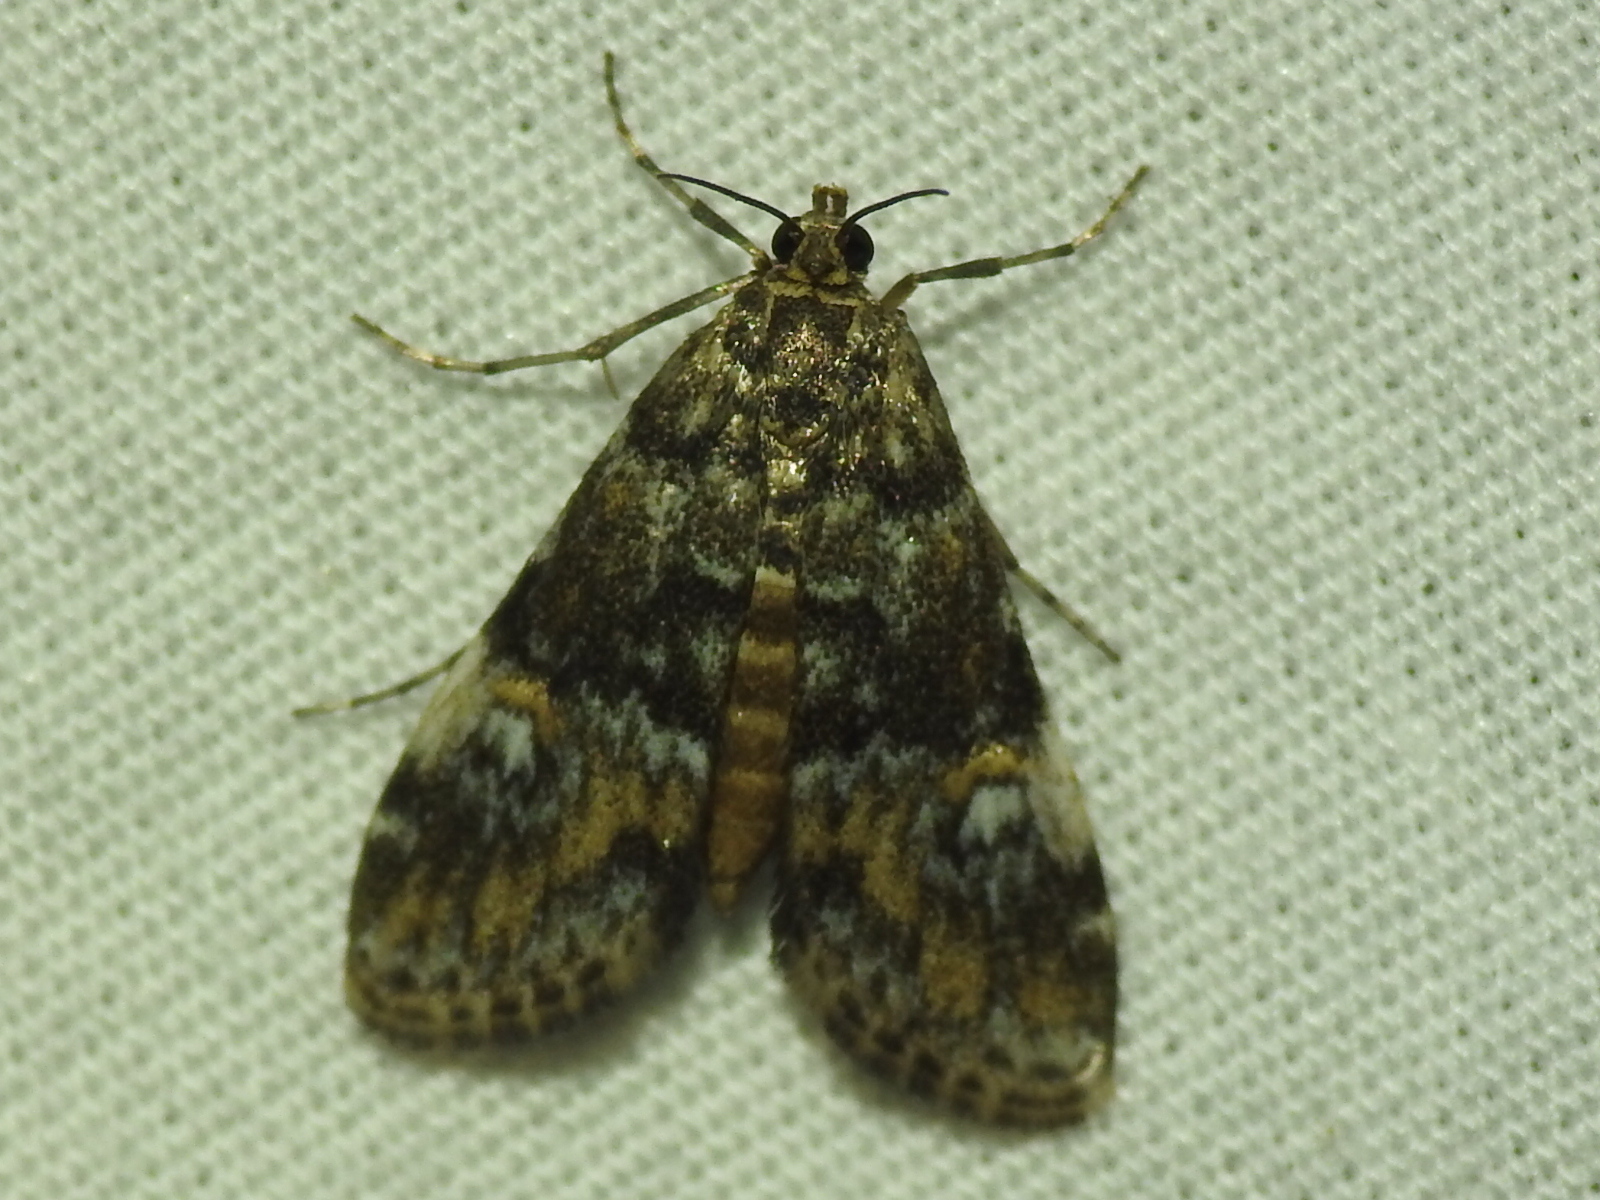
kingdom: Animalia
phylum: Arthropoda
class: Insecta
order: Lepidoptera
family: Crambidae
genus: Elophila
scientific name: Elophila obliteralis
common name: Waterlily leafcutter moth
